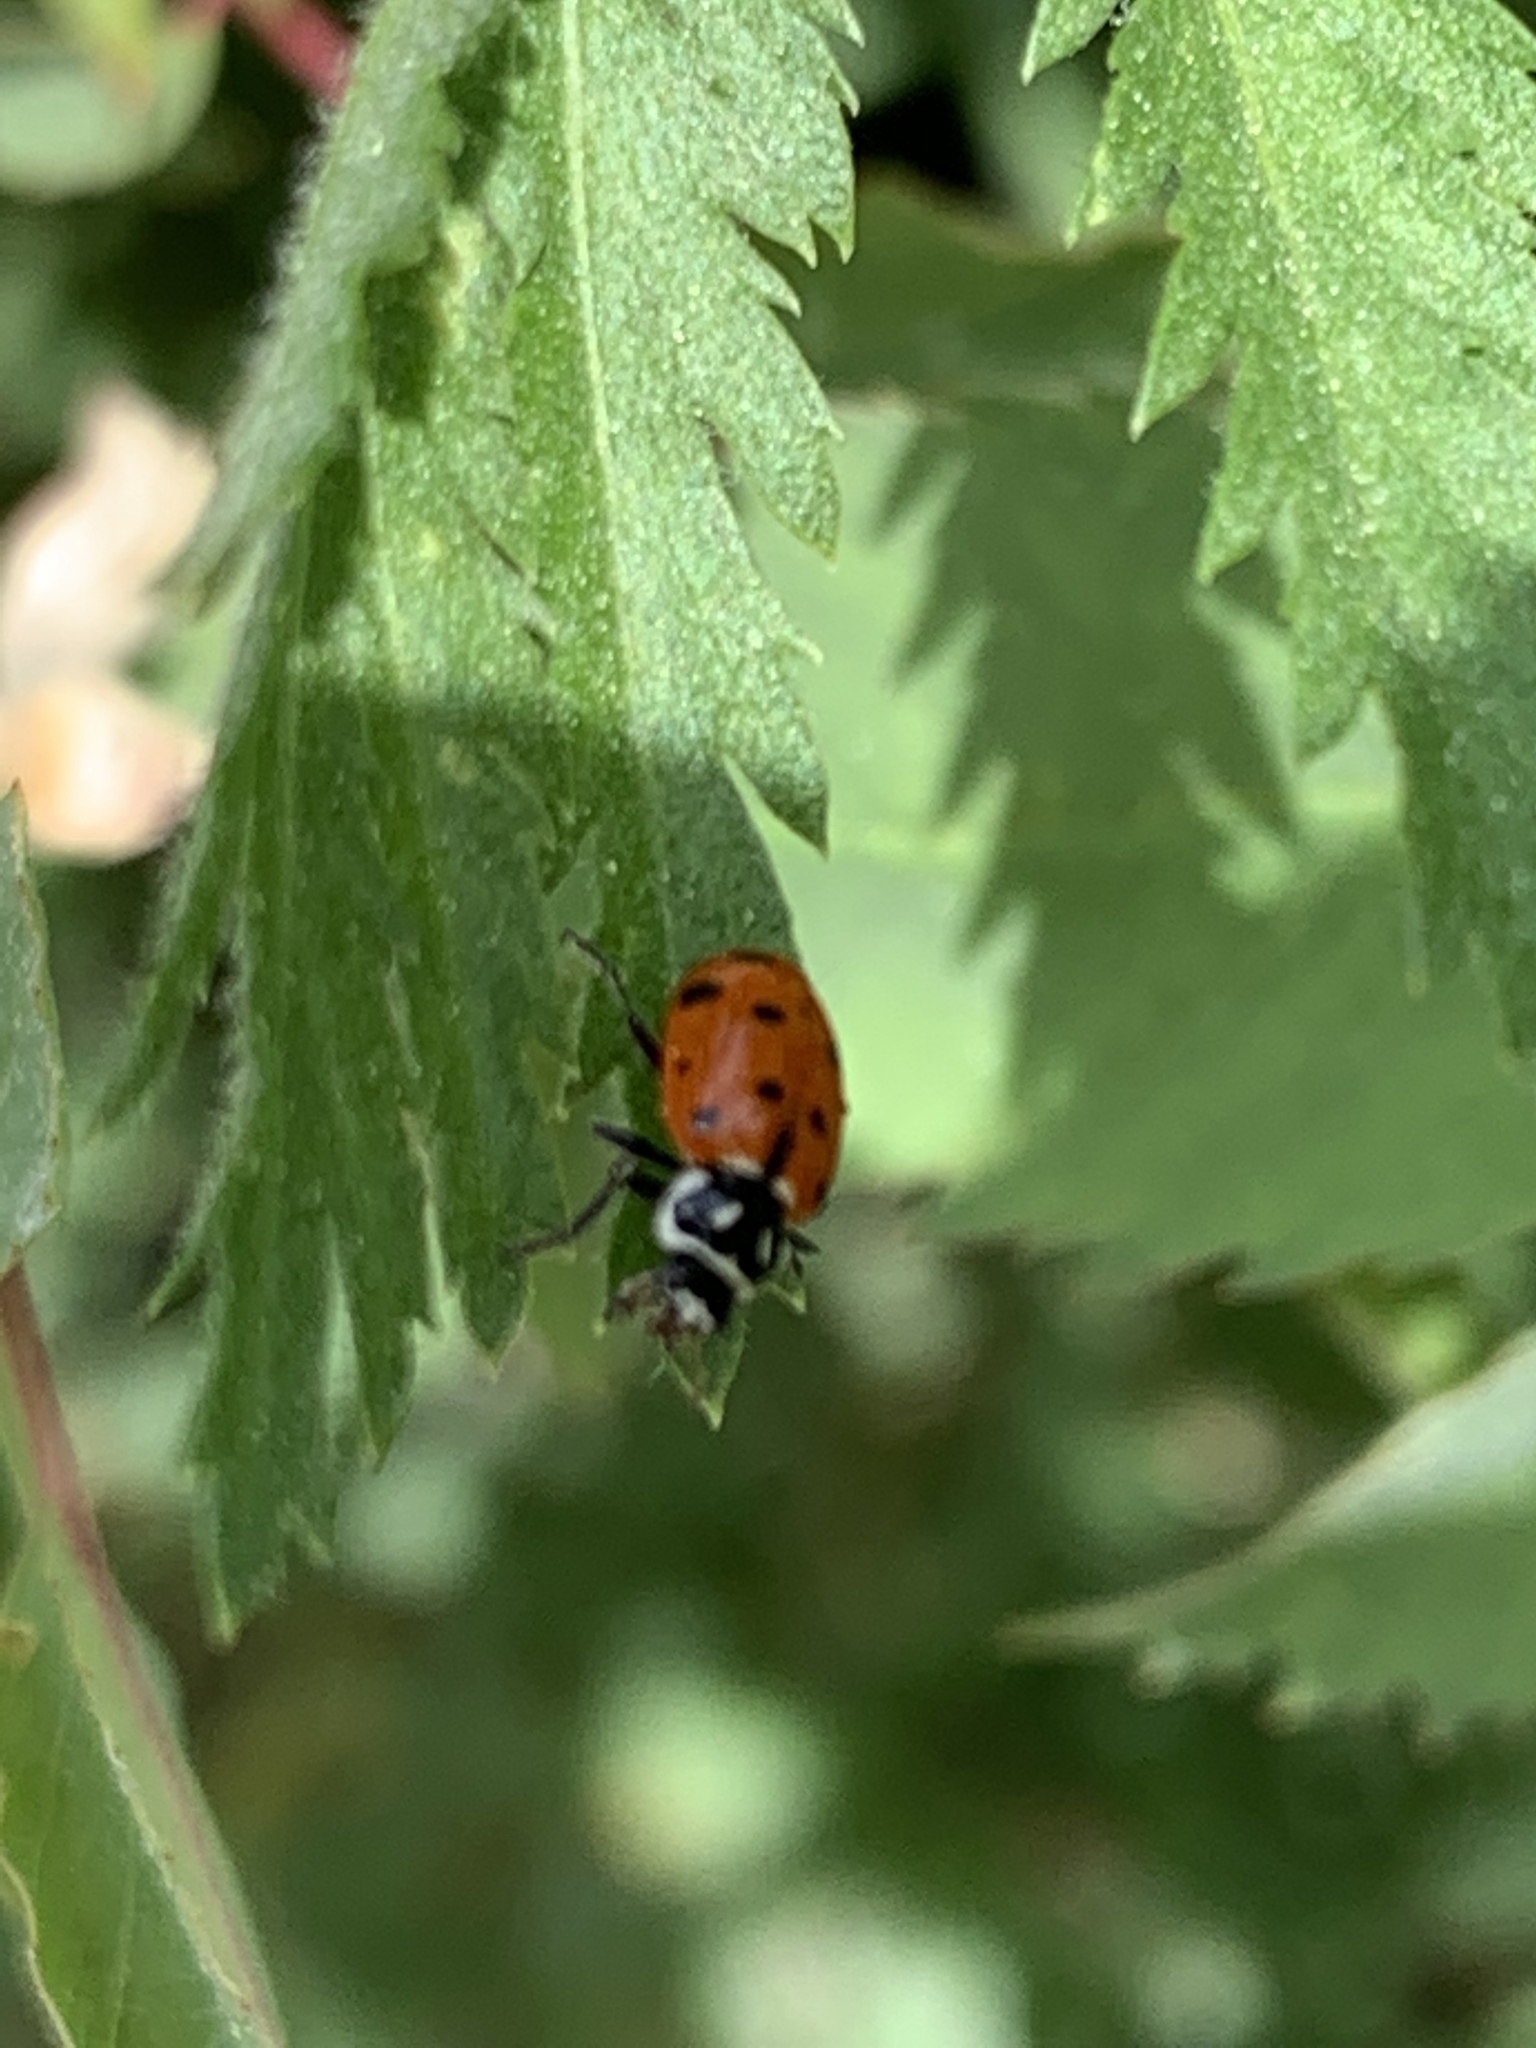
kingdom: Animalia
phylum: Arthropoda
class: Insecta
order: Coleoptera
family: Coccinellidae
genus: Hippodamia
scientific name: Hippodamia convergens
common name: Convergent lady beetle
